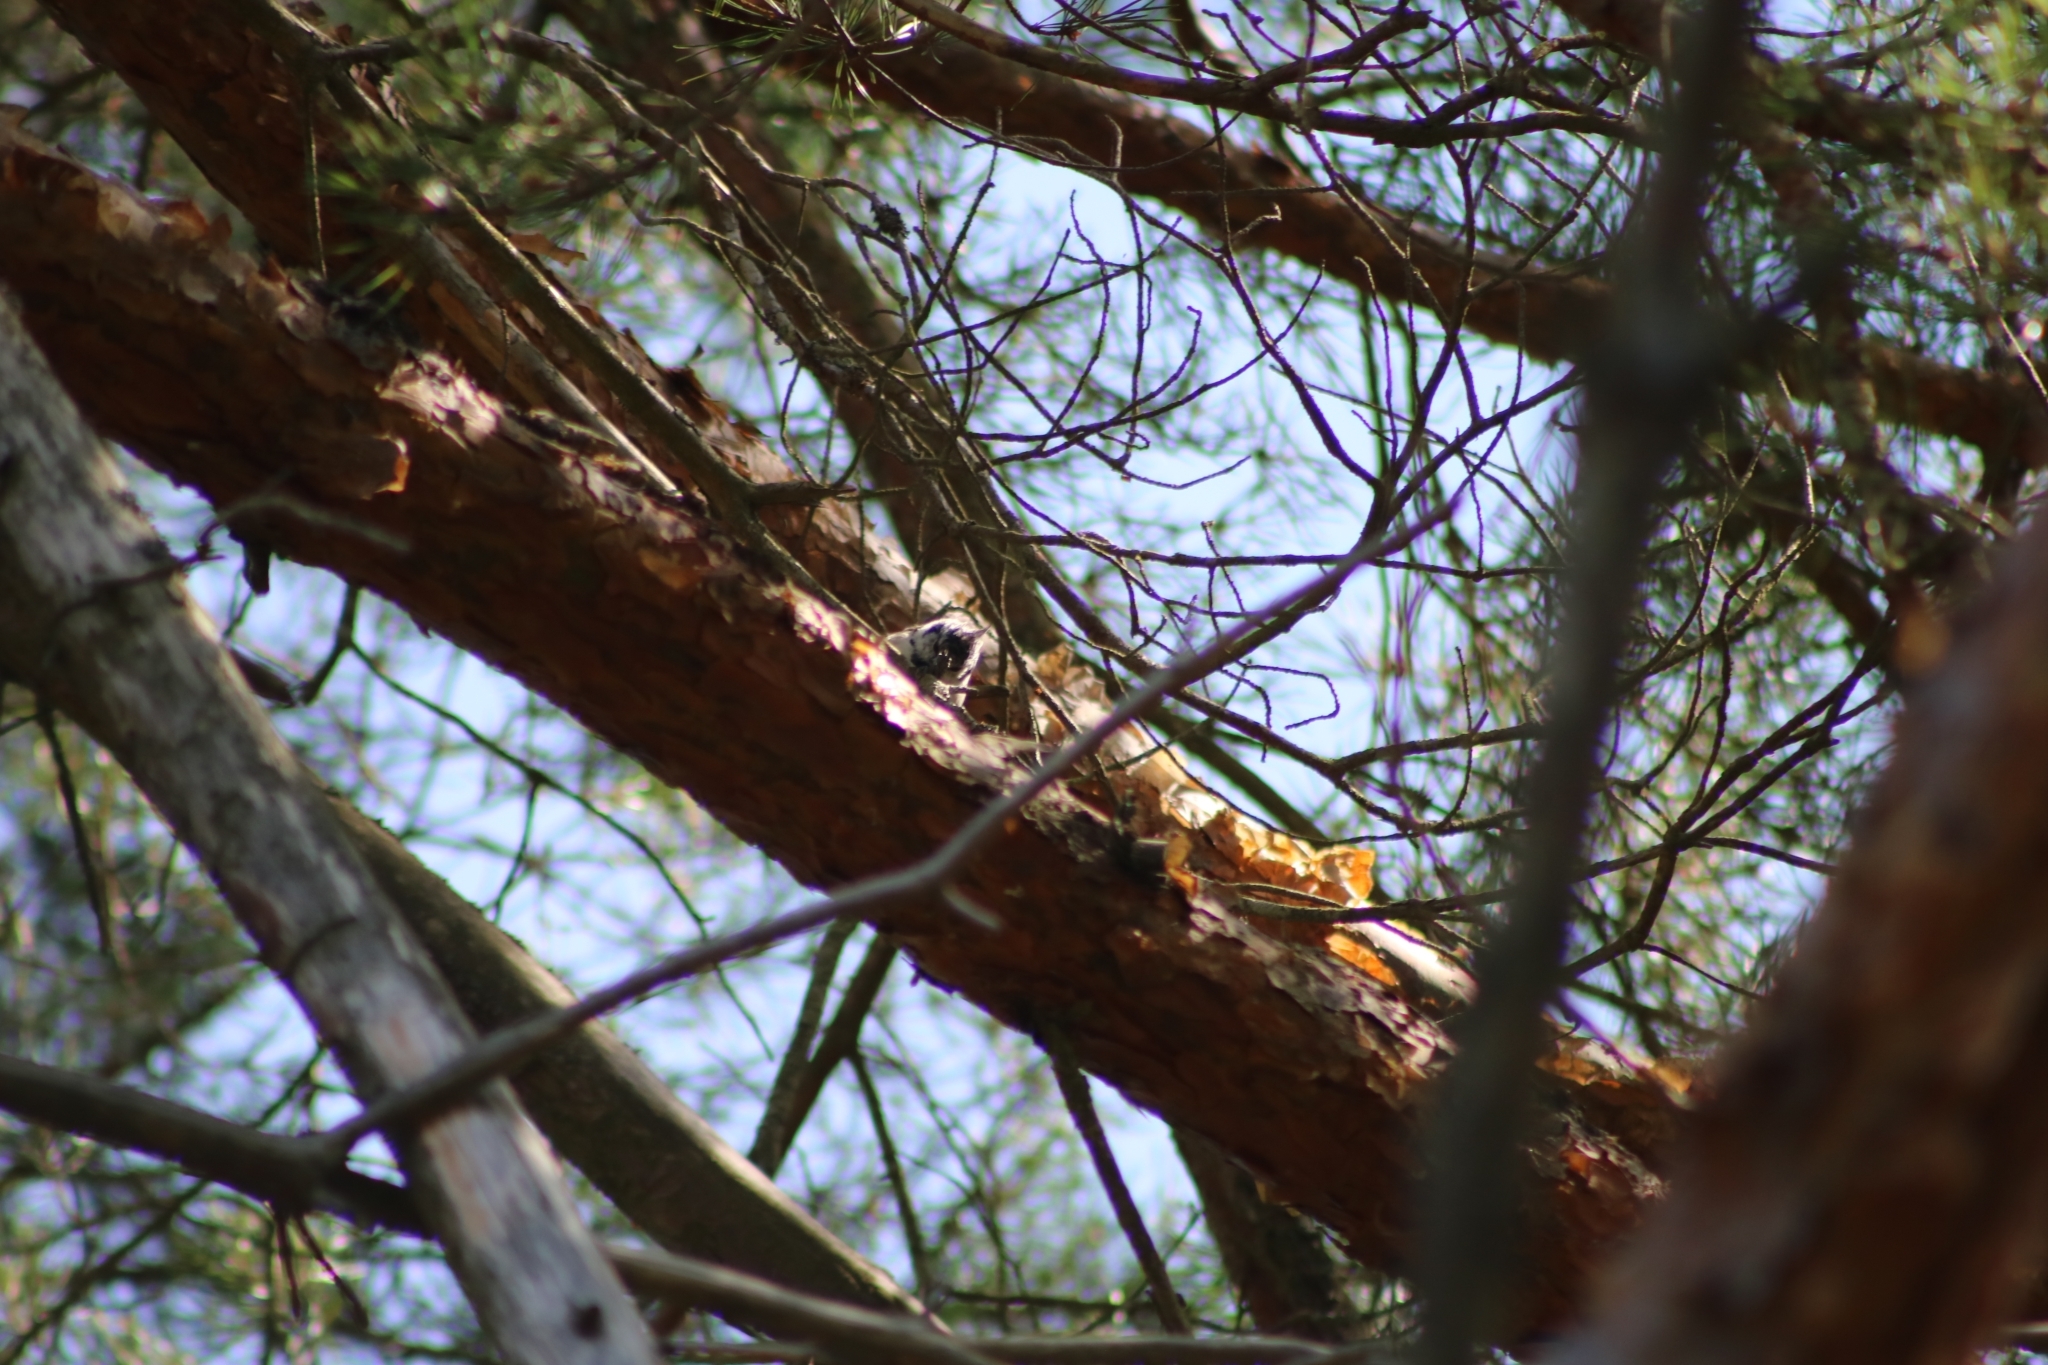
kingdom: Animalia
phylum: Chordata
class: Aves
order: Passeriformes
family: Paridae
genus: Lophophanes
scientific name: Lophophanes cristatus
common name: European crested tit
